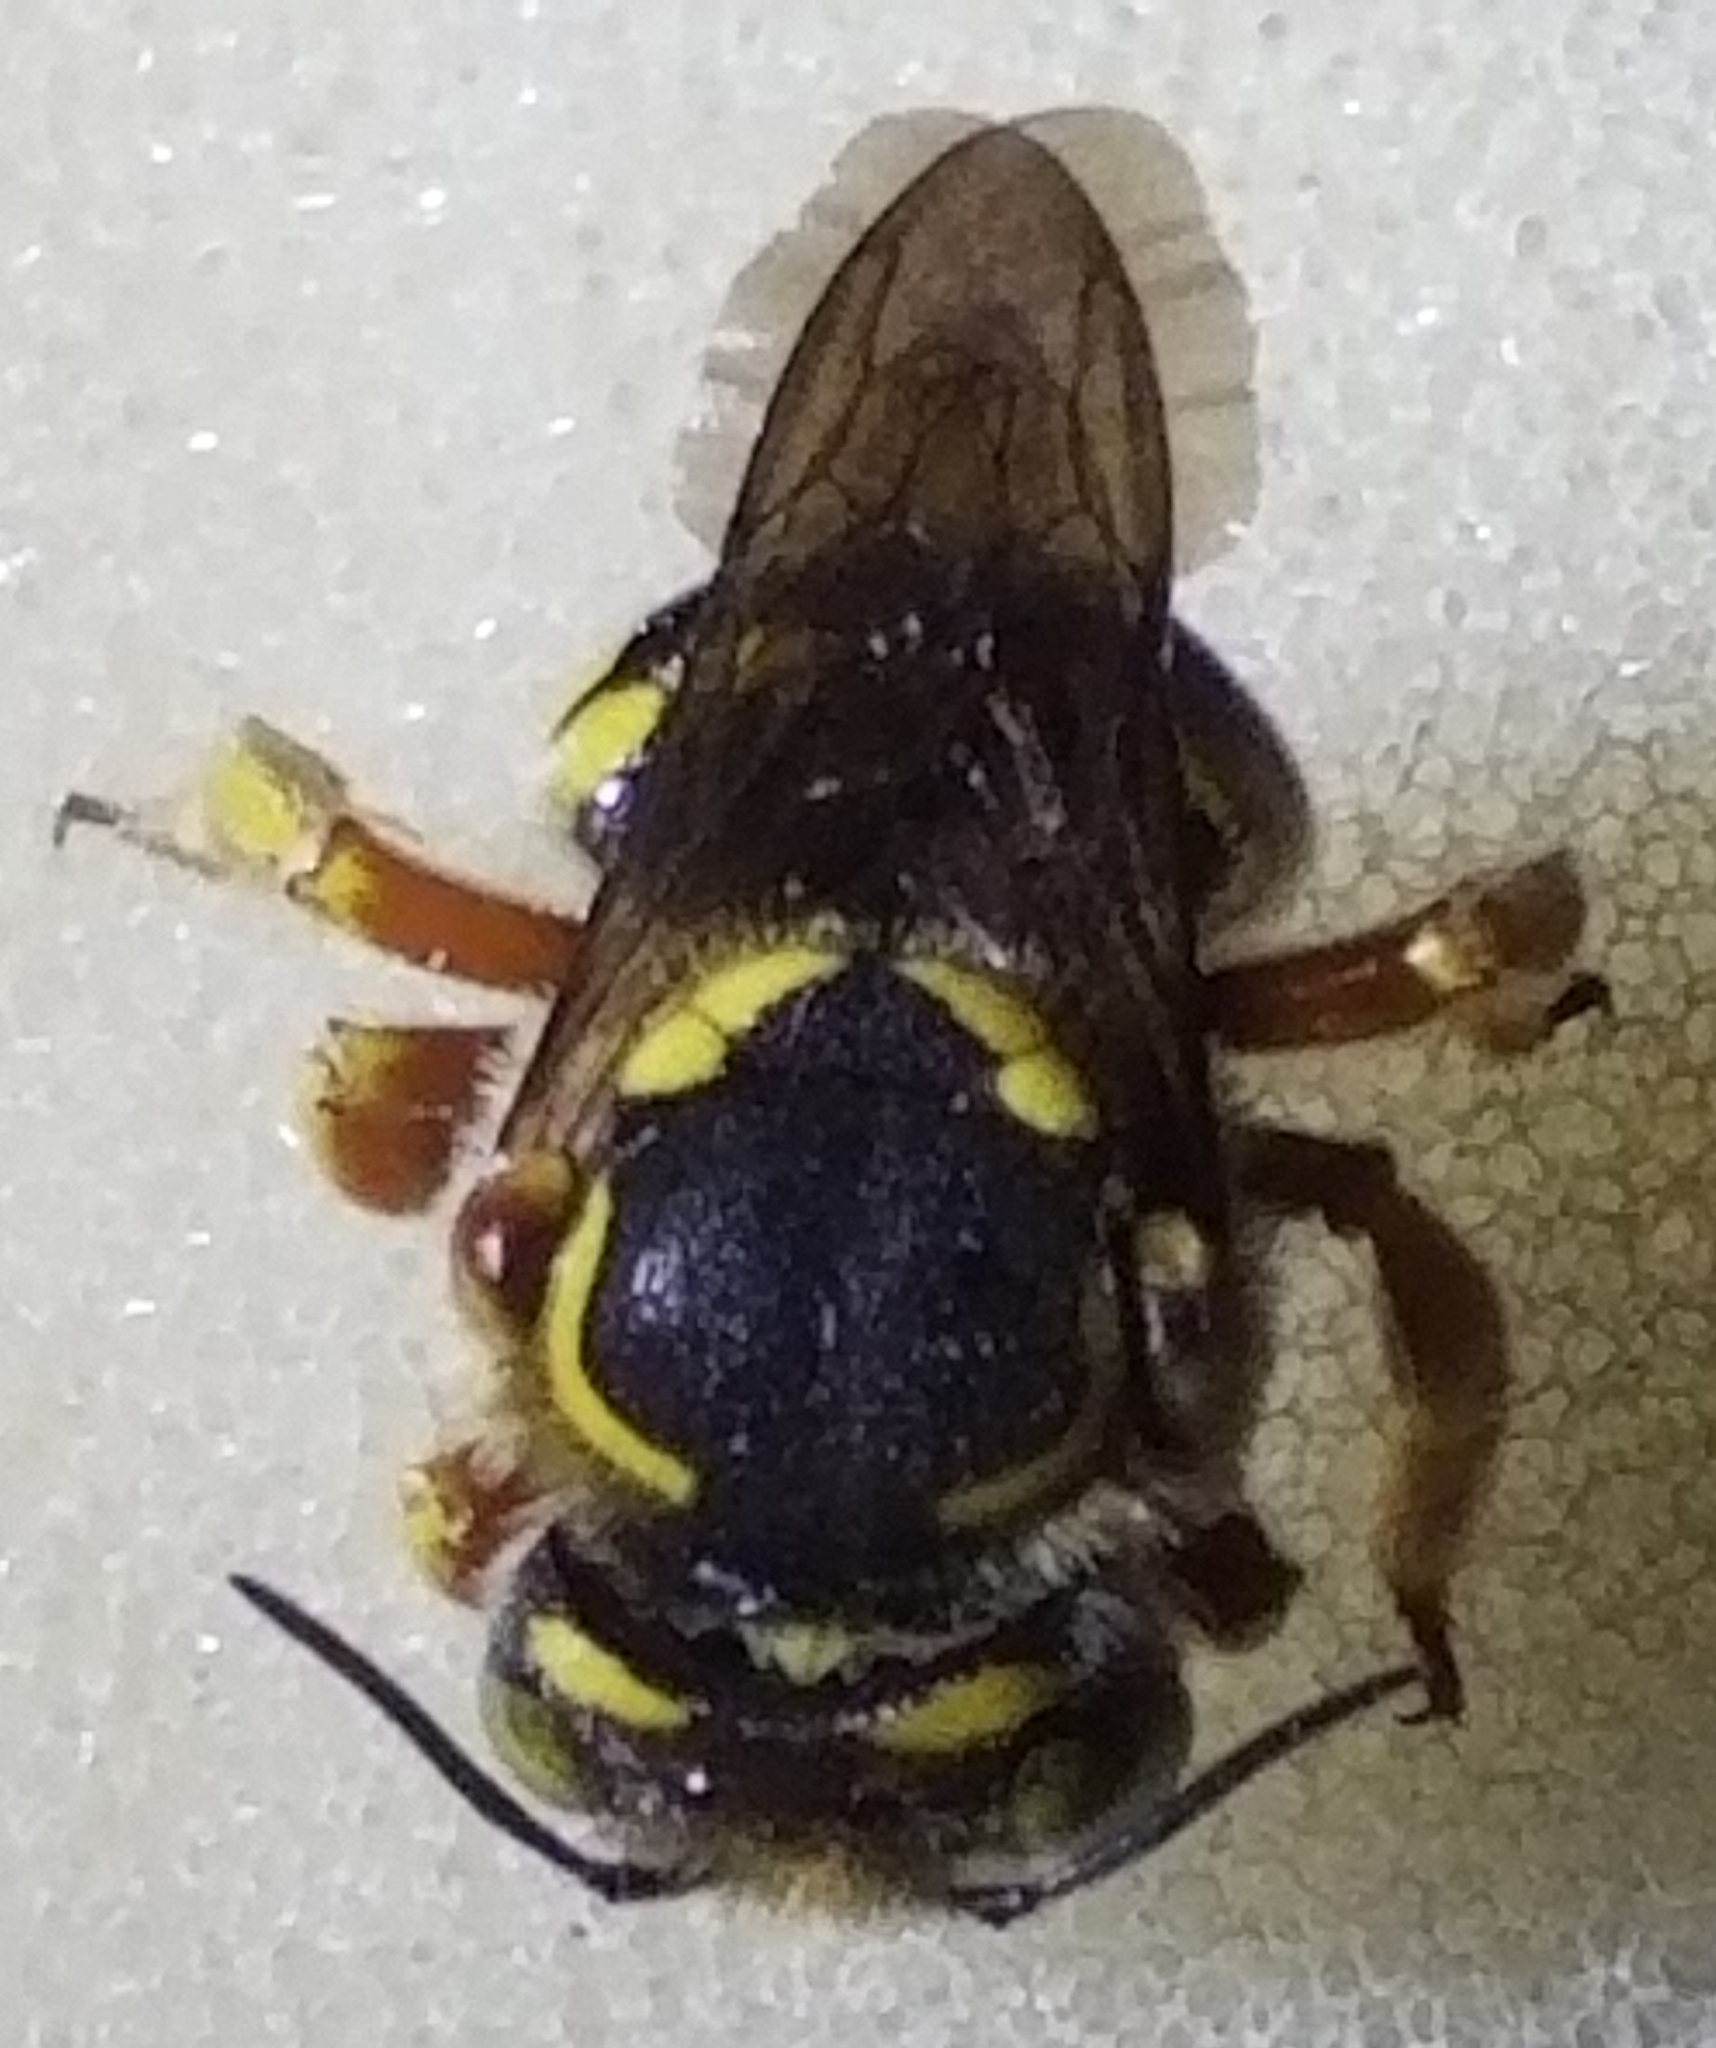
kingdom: Animalia
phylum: Arthropoda
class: Insecta
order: Hymenoptera
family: Megachilidae
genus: Anthidium
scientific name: Anthidium loti
